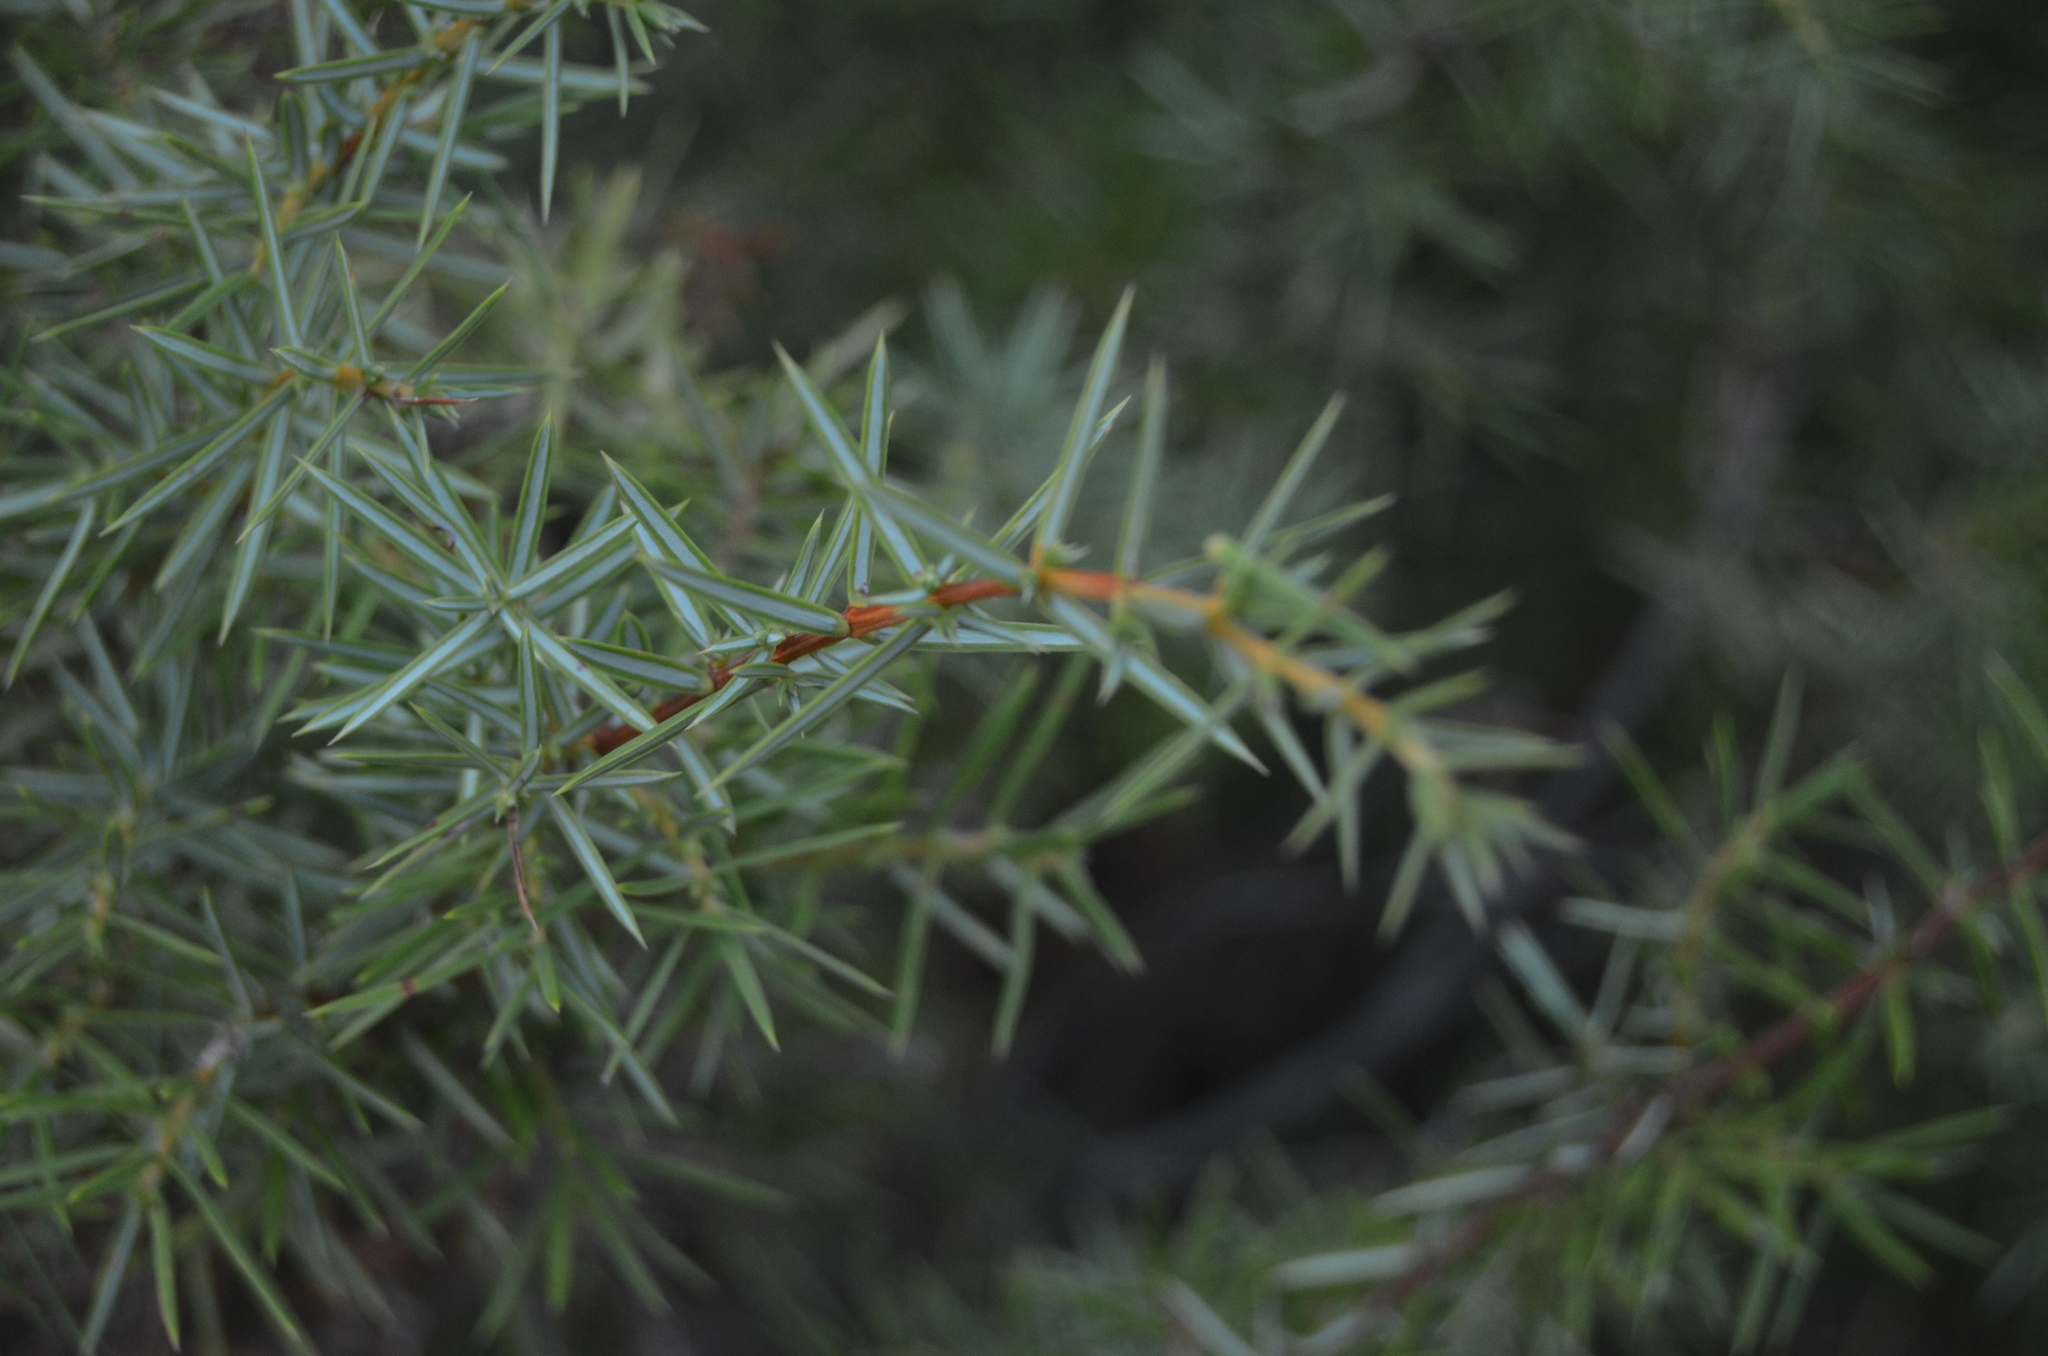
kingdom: Plantae
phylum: Tracheophyta
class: Pinopsida
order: Pinales
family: Cupressaceae
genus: Juniperus
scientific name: Juniperus communis
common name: Common juniper
